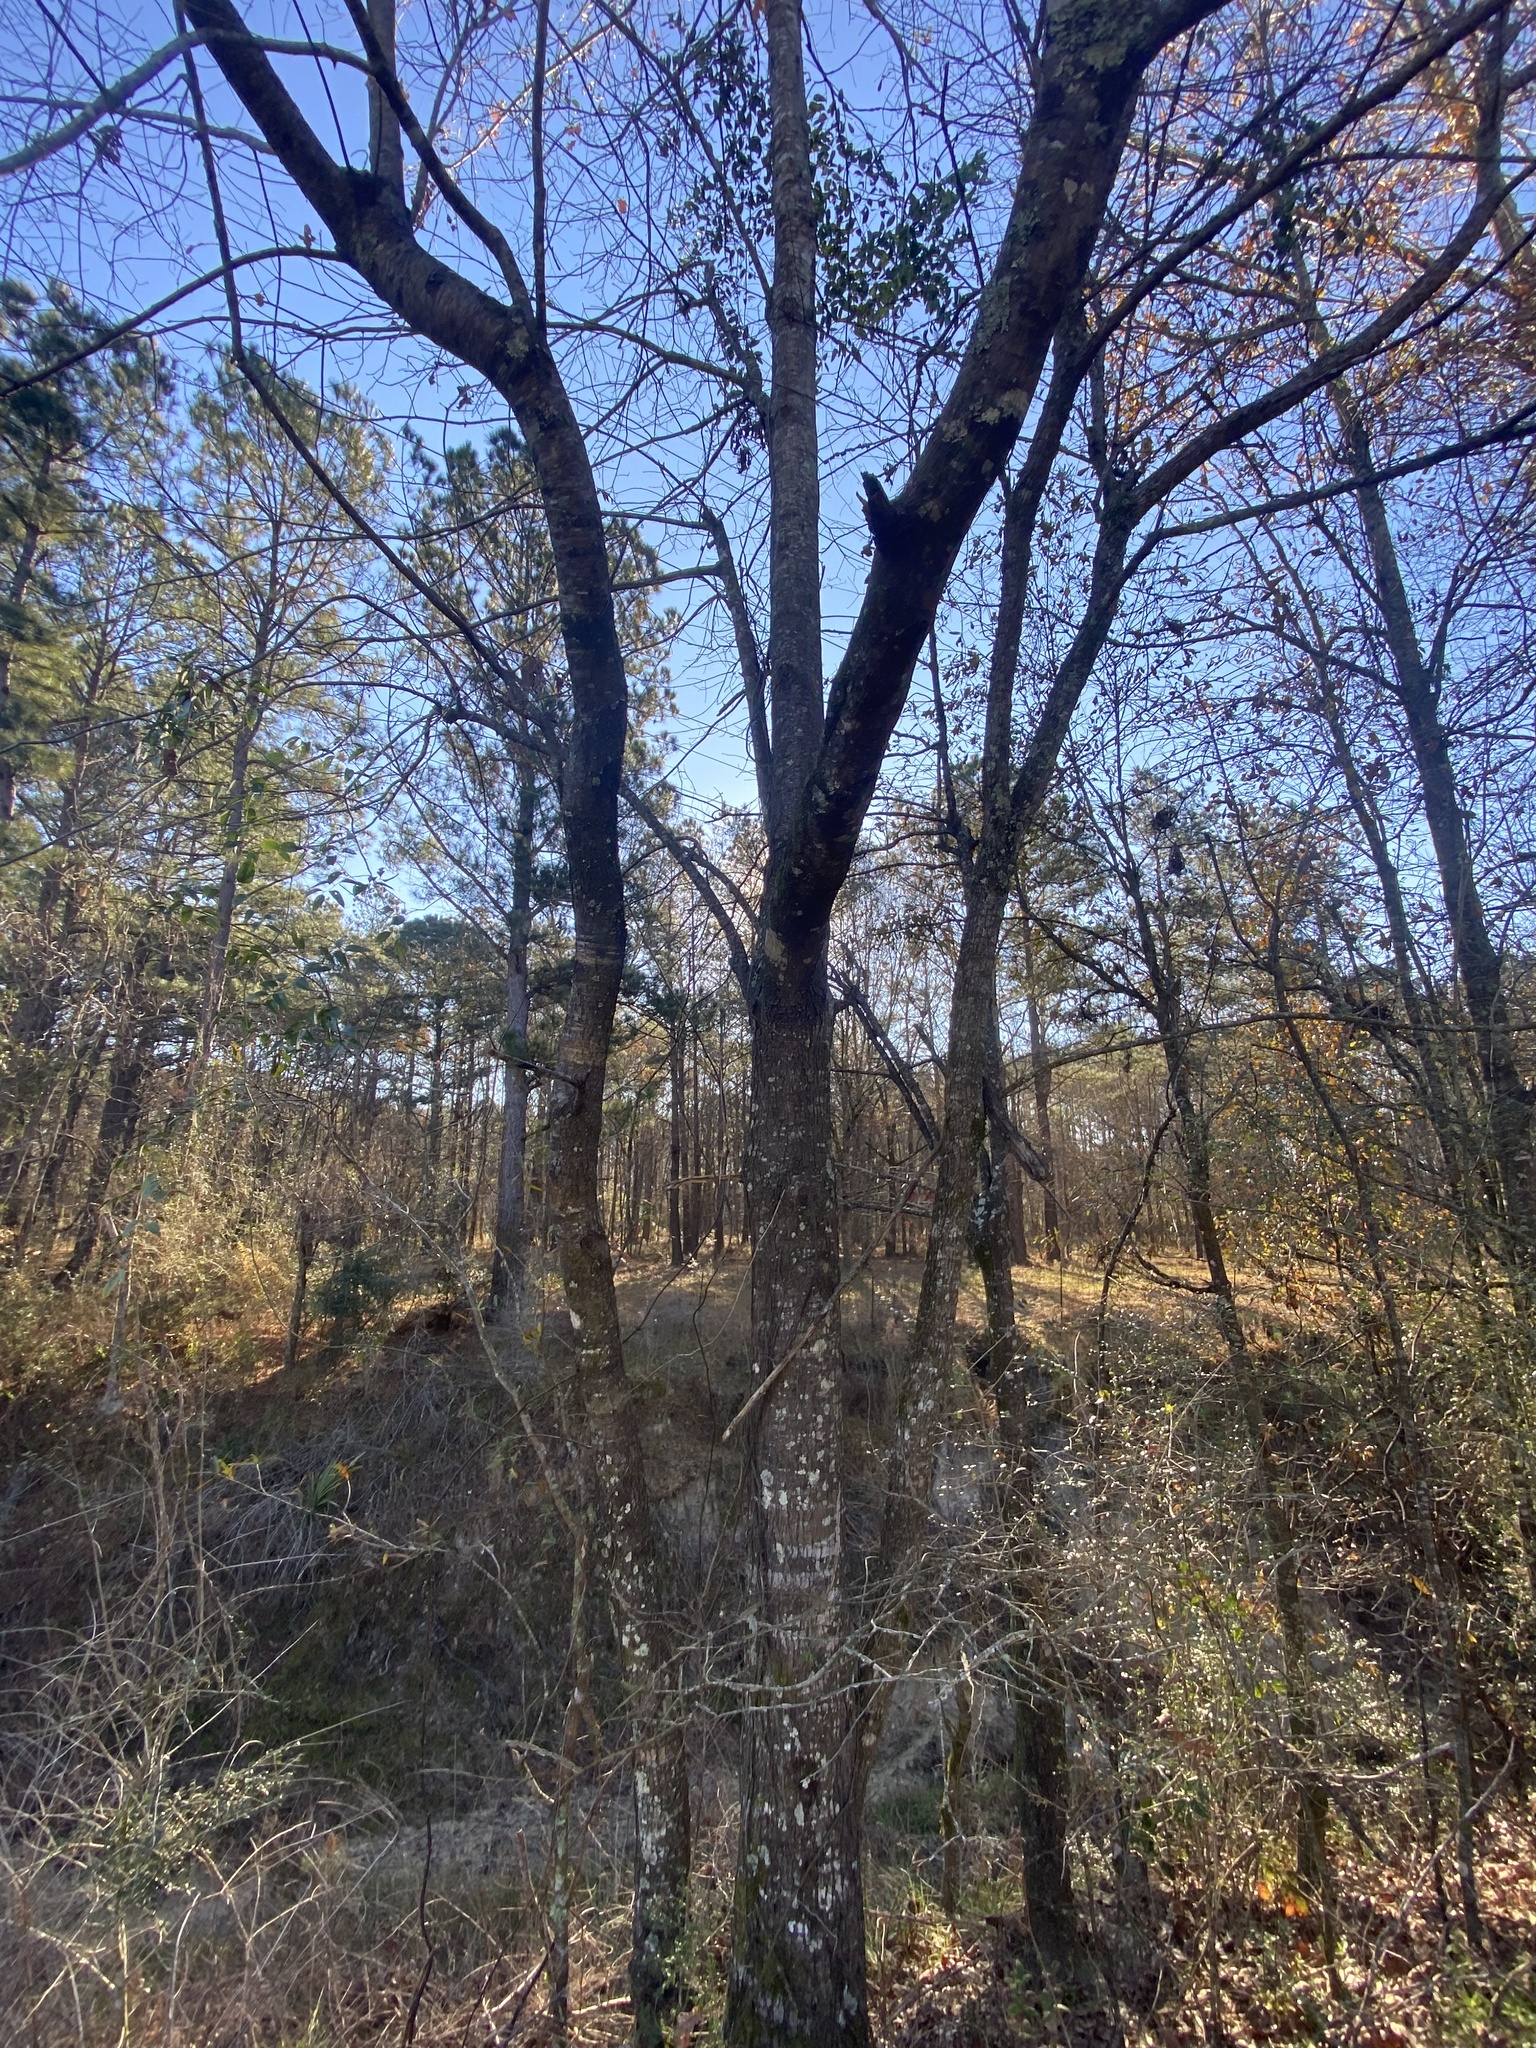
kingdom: Plantae
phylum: Tracheophyta
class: Magnoliopsida
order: Rosales
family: Ulmaceae
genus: Ulmus
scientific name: Ulmus alata
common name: Winged elm
